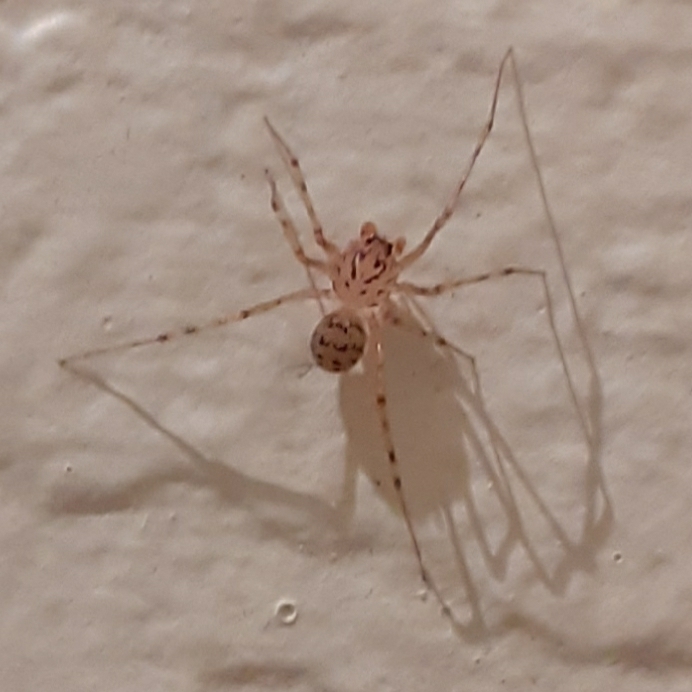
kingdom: Animalia
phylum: Arthropoda
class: Arachnida
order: Araneae
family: Scytodidae
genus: Scytodes
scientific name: Scytodes thoracica
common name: Spitting spider
